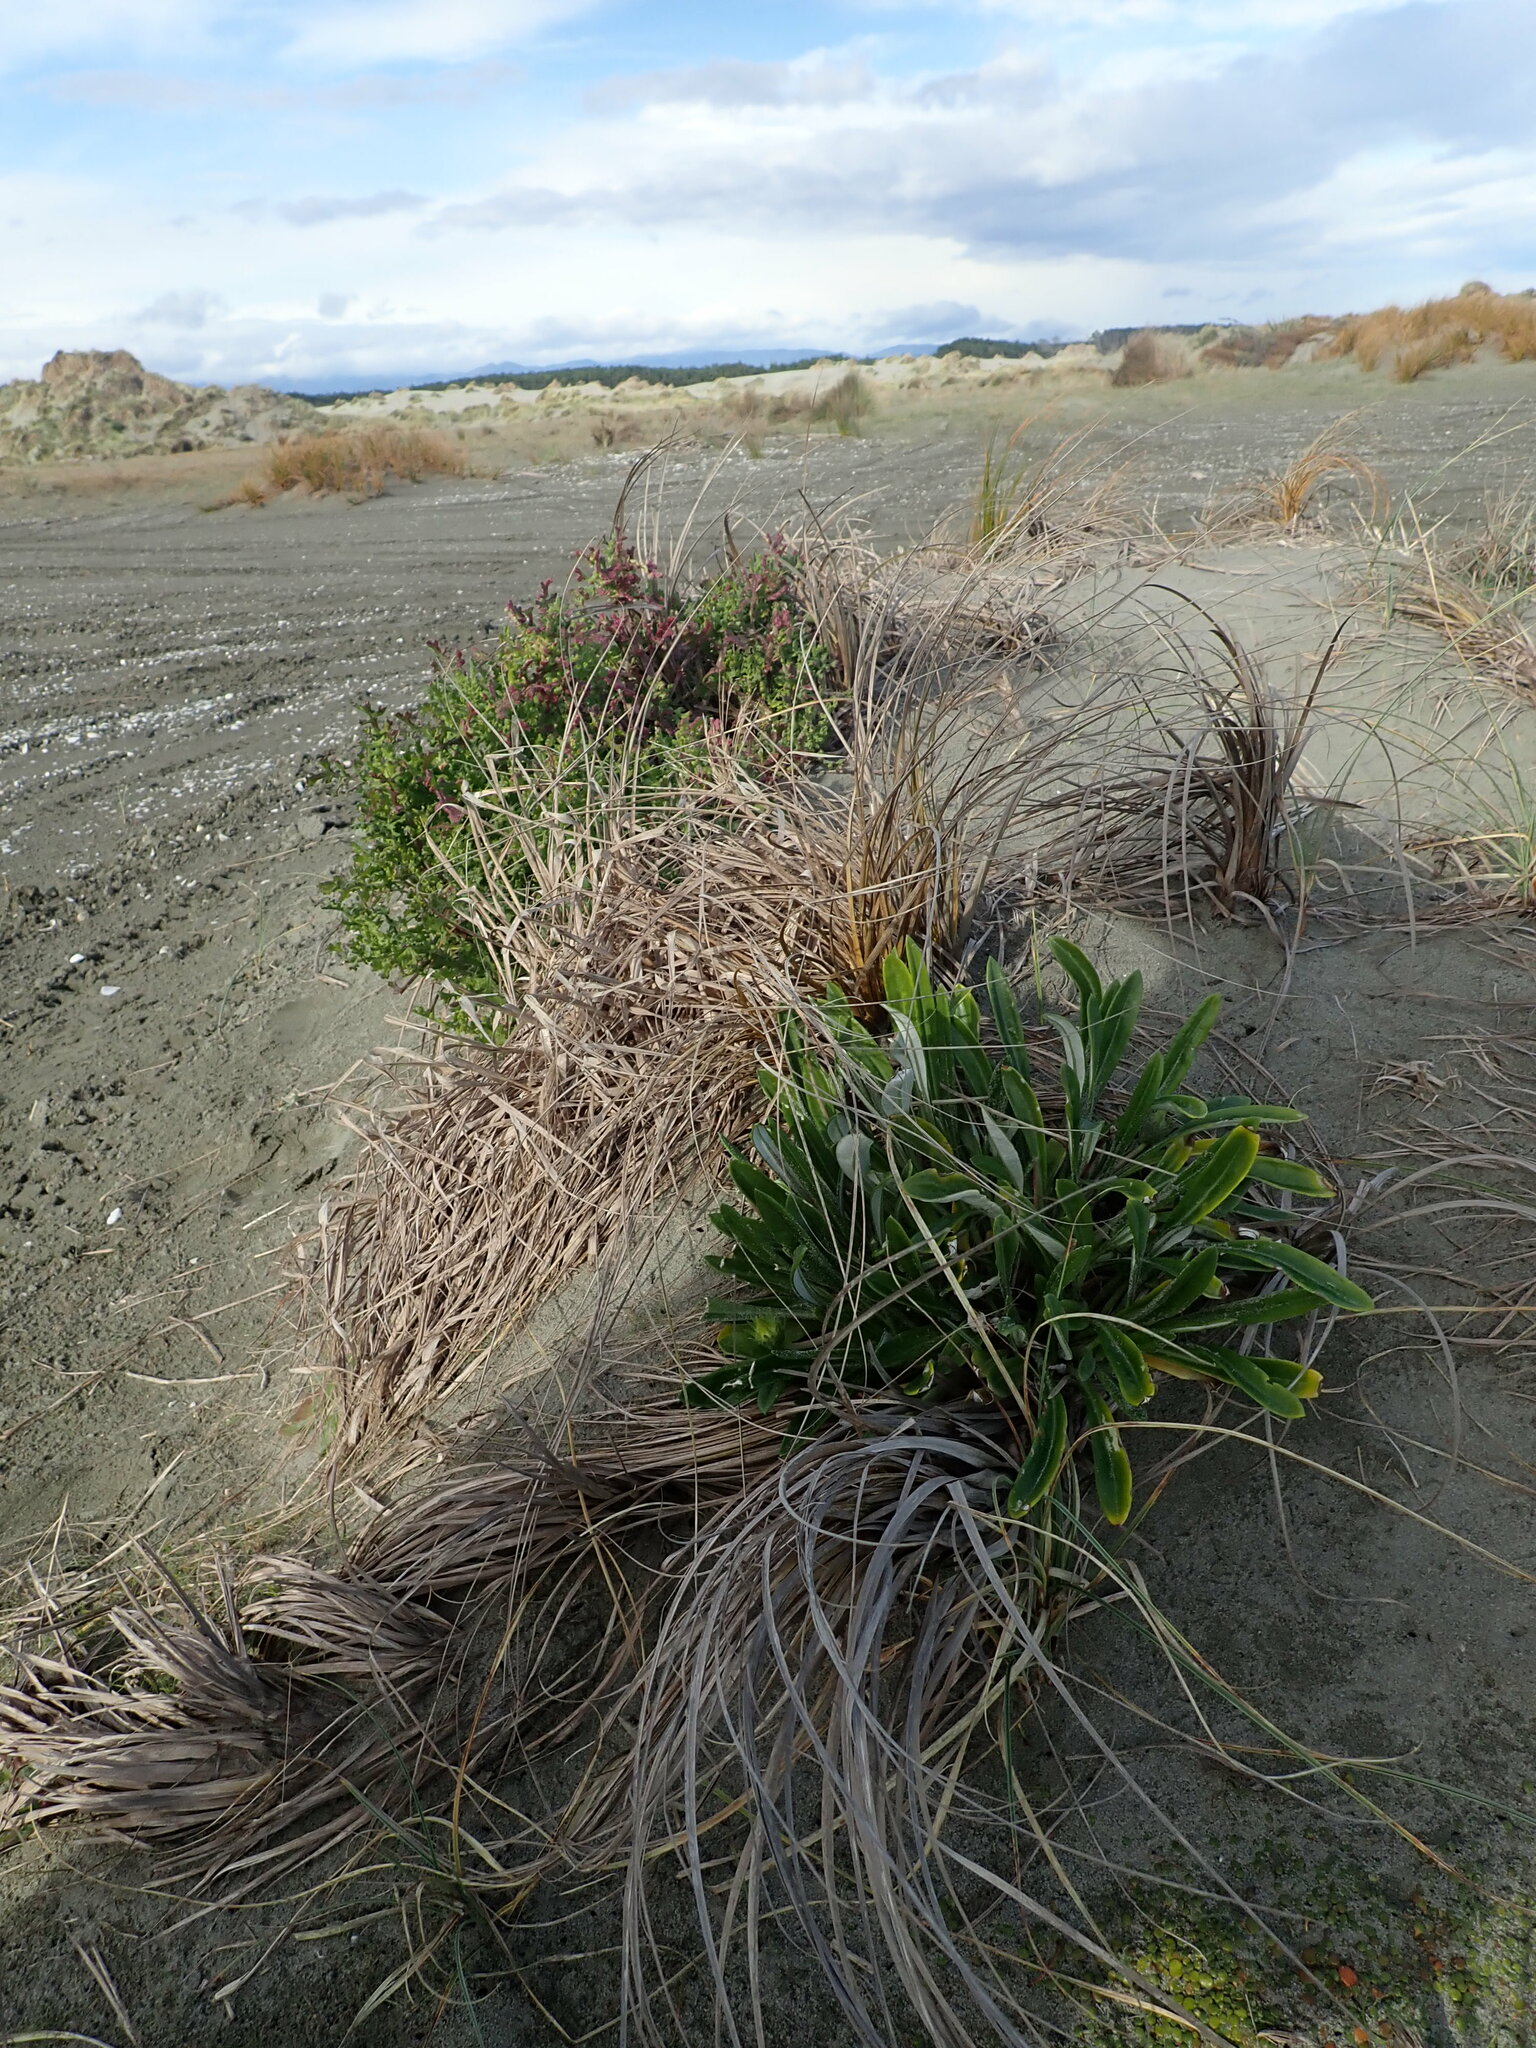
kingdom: Plantae
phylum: Tracheophyta
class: Magnoliopsida
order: Asterales
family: Asteraceae
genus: Gazania
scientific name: Gazania splendens
